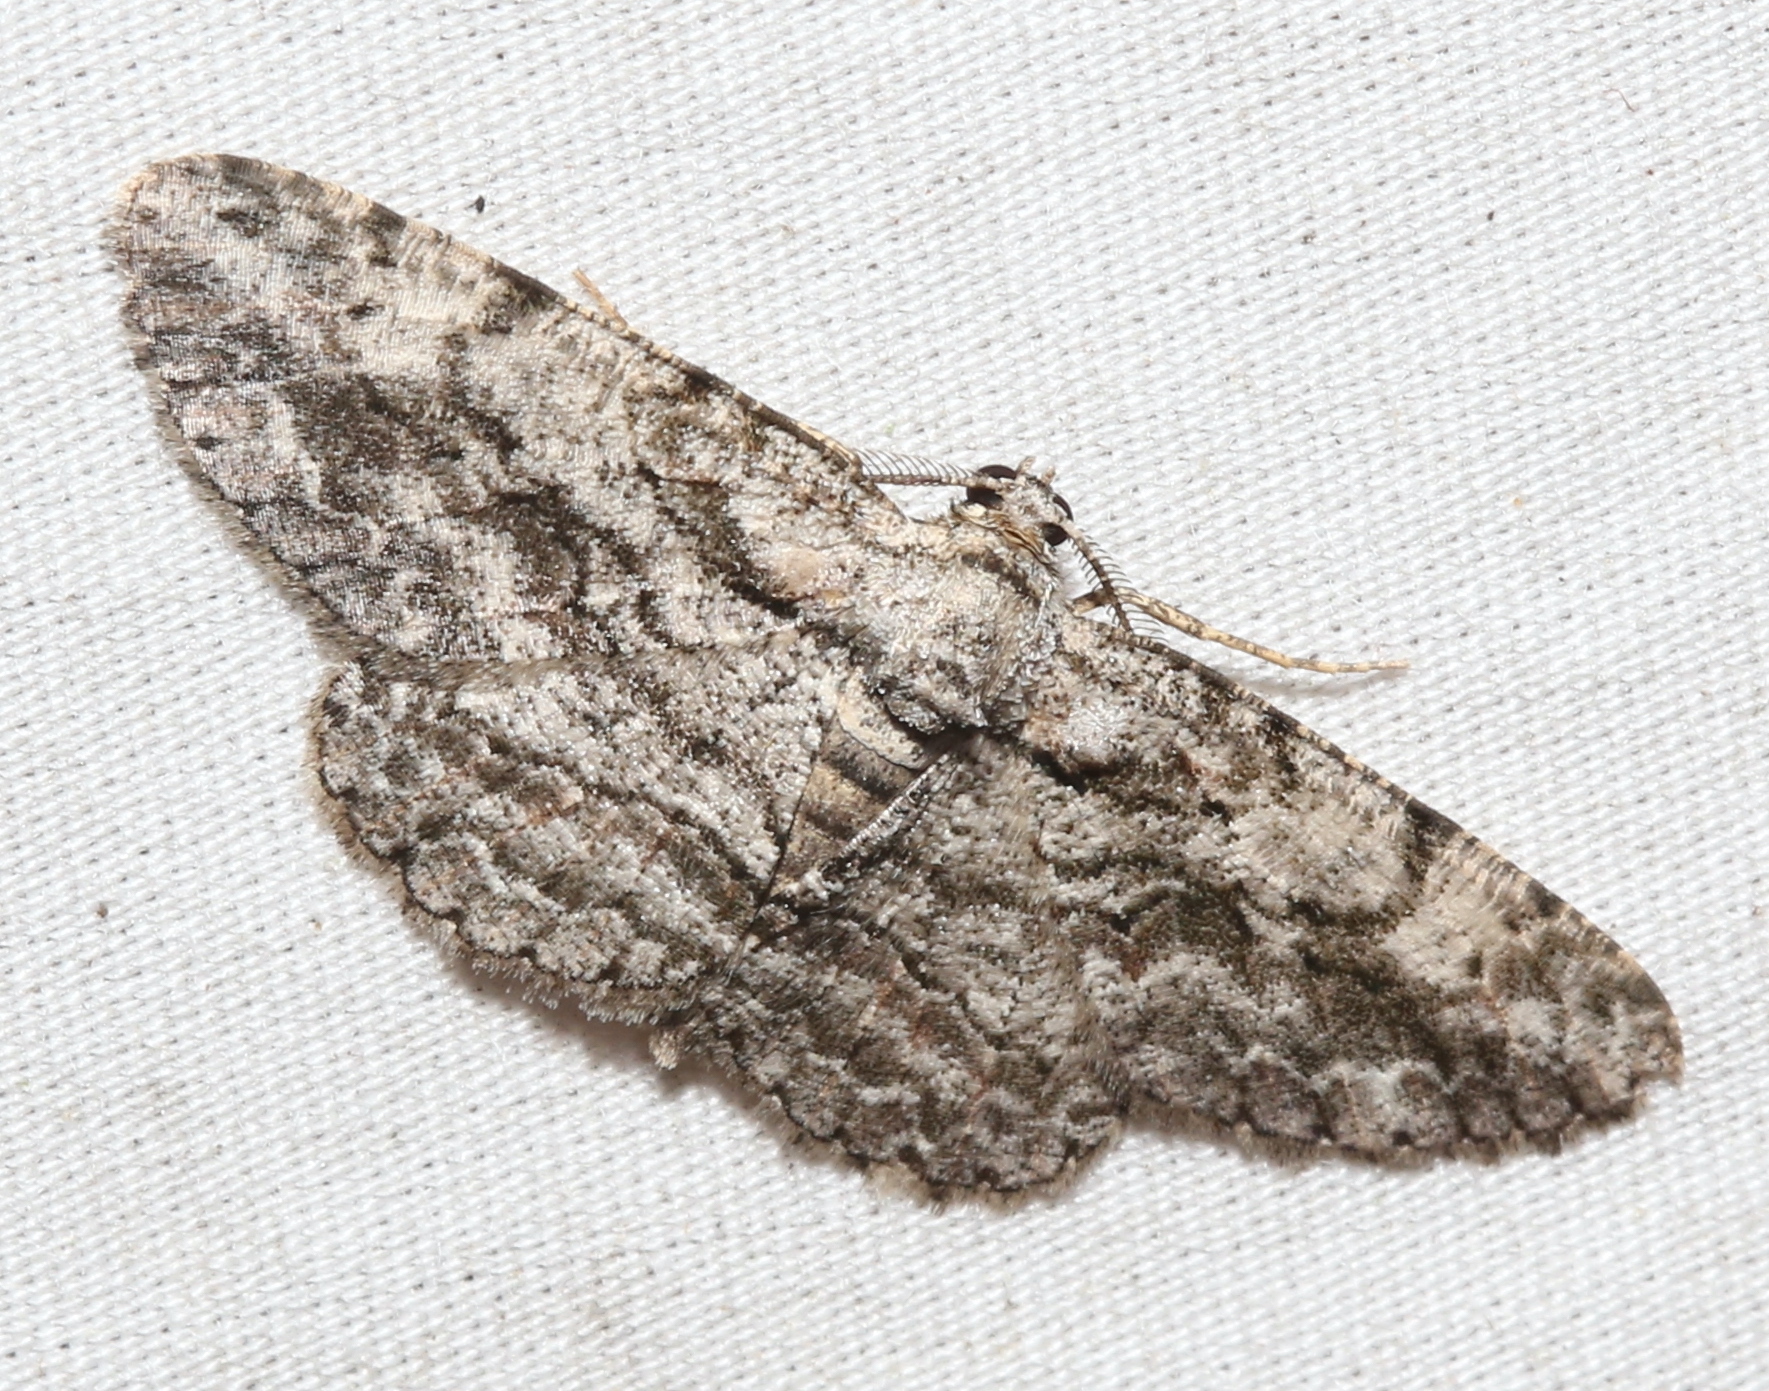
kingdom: Animalia
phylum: Arthropoda
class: Insecta
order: Lepidoptera
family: Geometridae
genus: Anavitrinella
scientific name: Anavitrinella pampinaria
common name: Common gray
